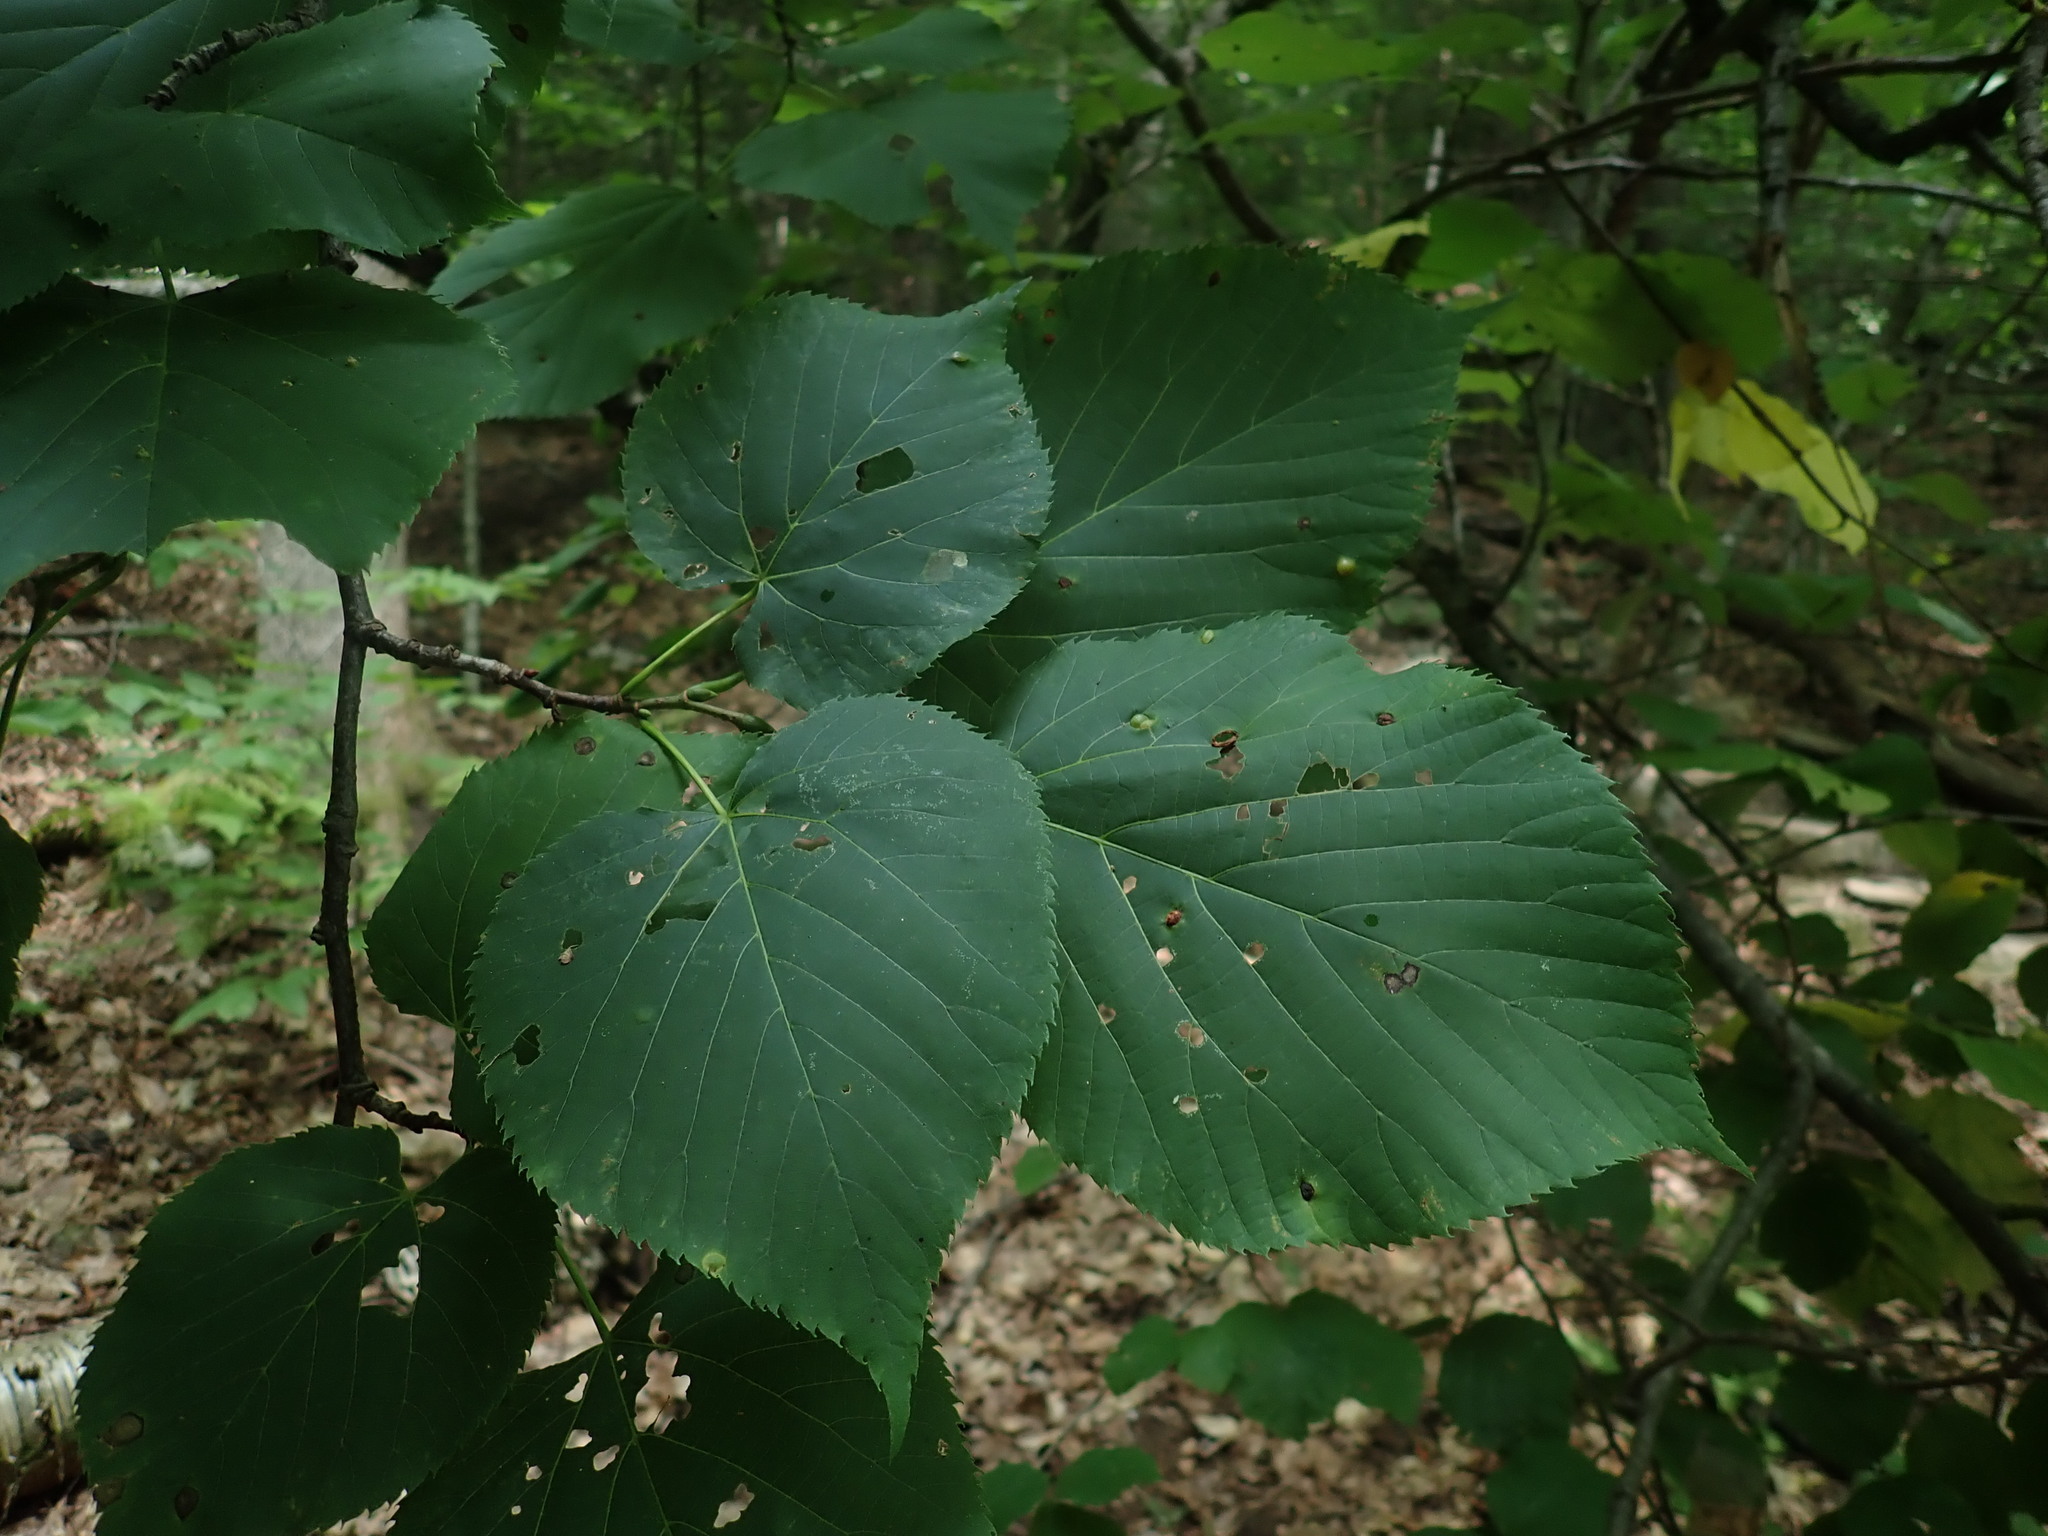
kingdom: Plantae
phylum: Tracheophyta
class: Magnoliopsida
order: Malvales
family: Malvaceae
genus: Tilia
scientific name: Tilia americana
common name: Basswood
